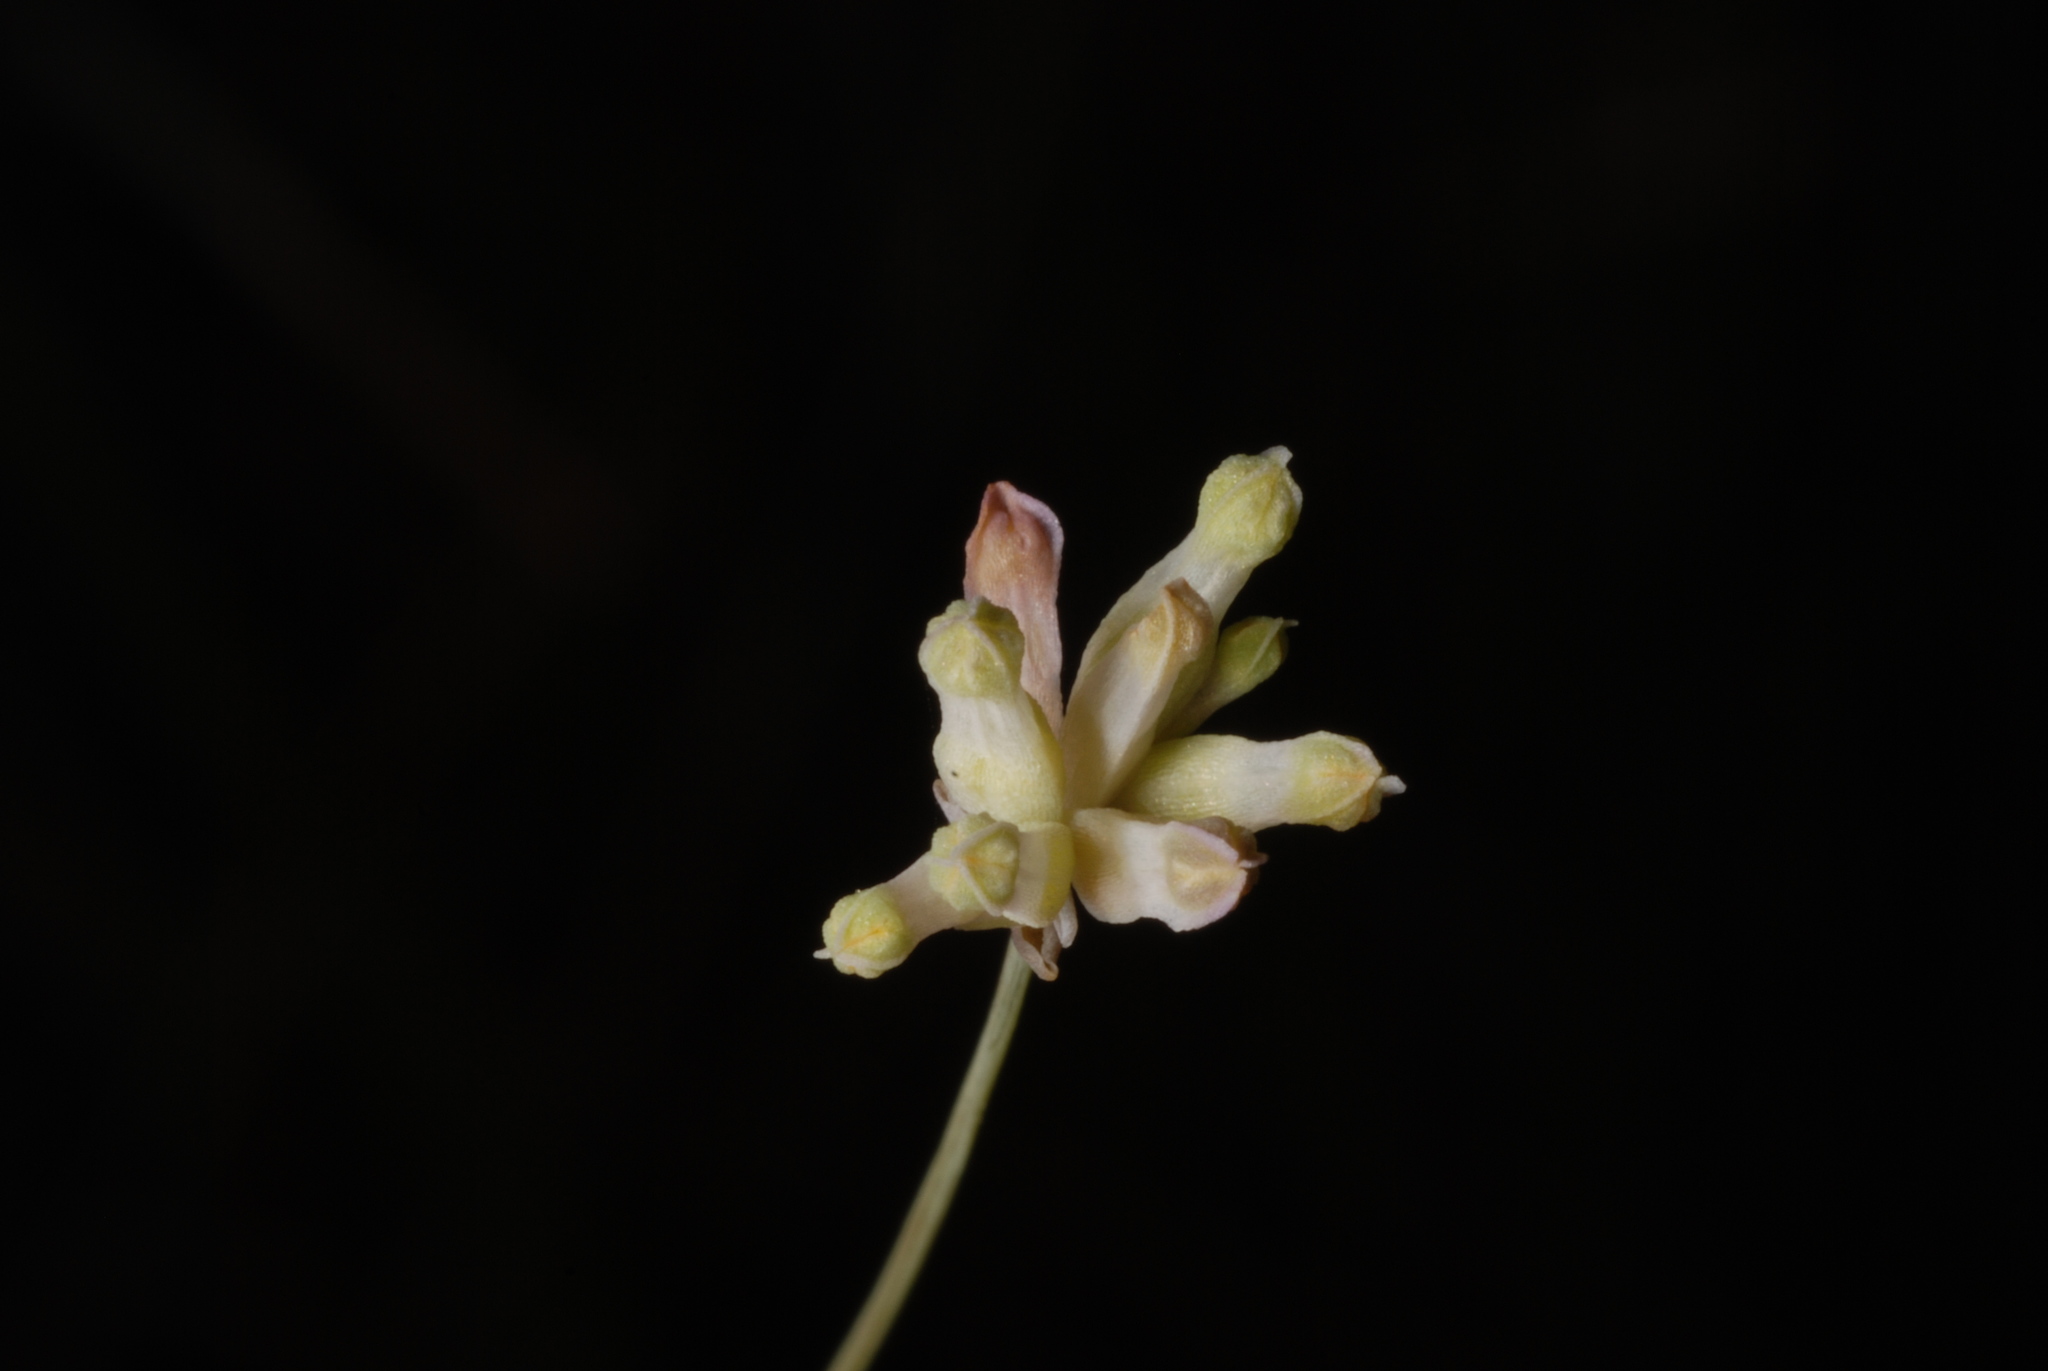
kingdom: Plantae
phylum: Tracheophyta
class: Liliopsida
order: Dioscoreales
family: Burmanniaceae
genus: Burmannia
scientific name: Burmannia capitata
